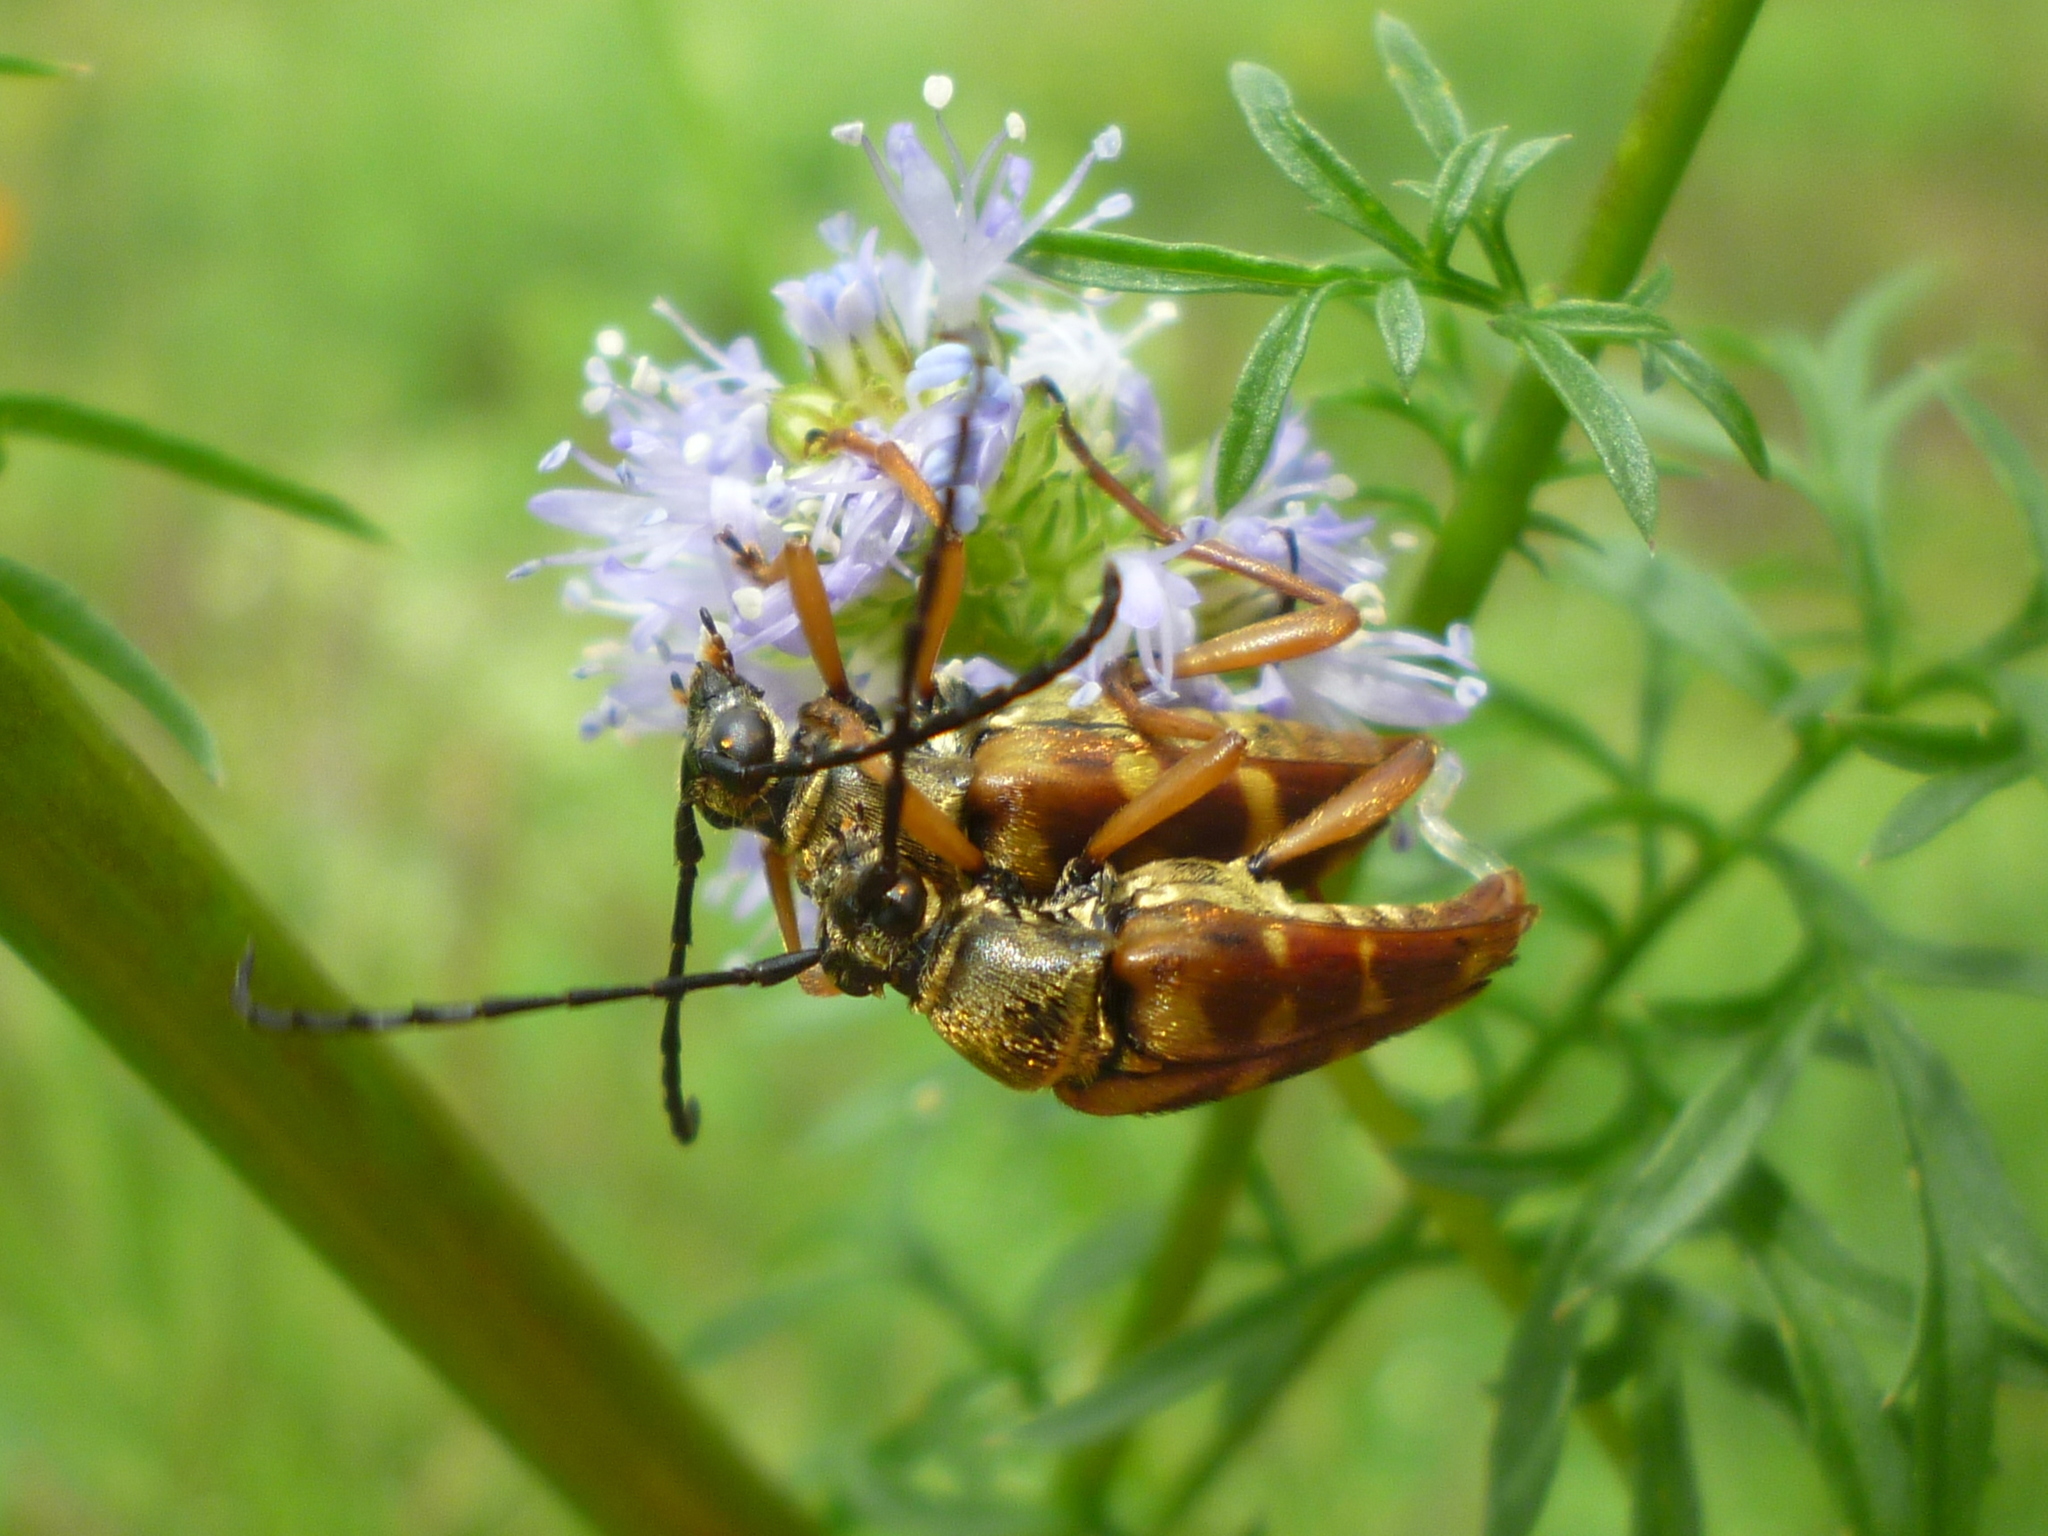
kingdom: Animalia
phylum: Arthropoda
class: Insecta
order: Coleoptera
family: Cerambycidae
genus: Typocerus
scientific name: Typocerus velutinus
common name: Banded longhorn beetle
